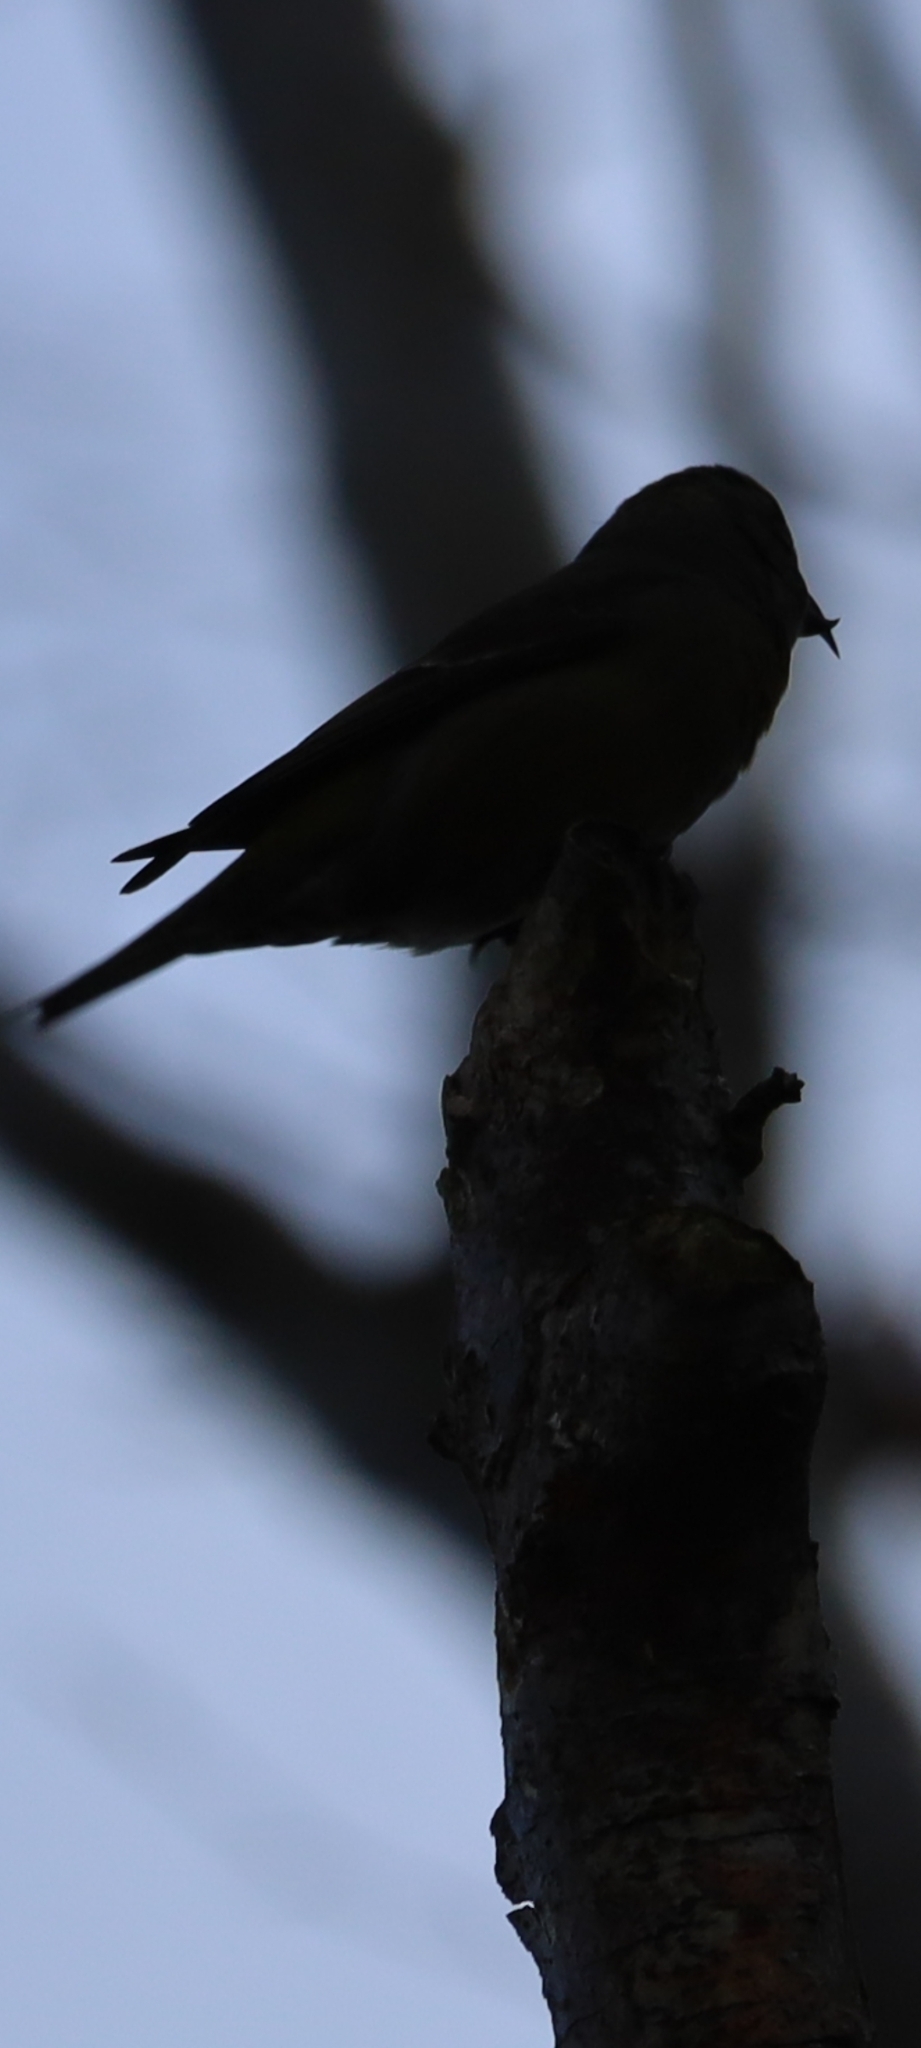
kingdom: Animalia
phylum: Chordata
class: Aves
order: Passeriformes
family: Fringillidae
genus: Loxia
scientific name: Loxia curvirostra
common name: Red crossbill
